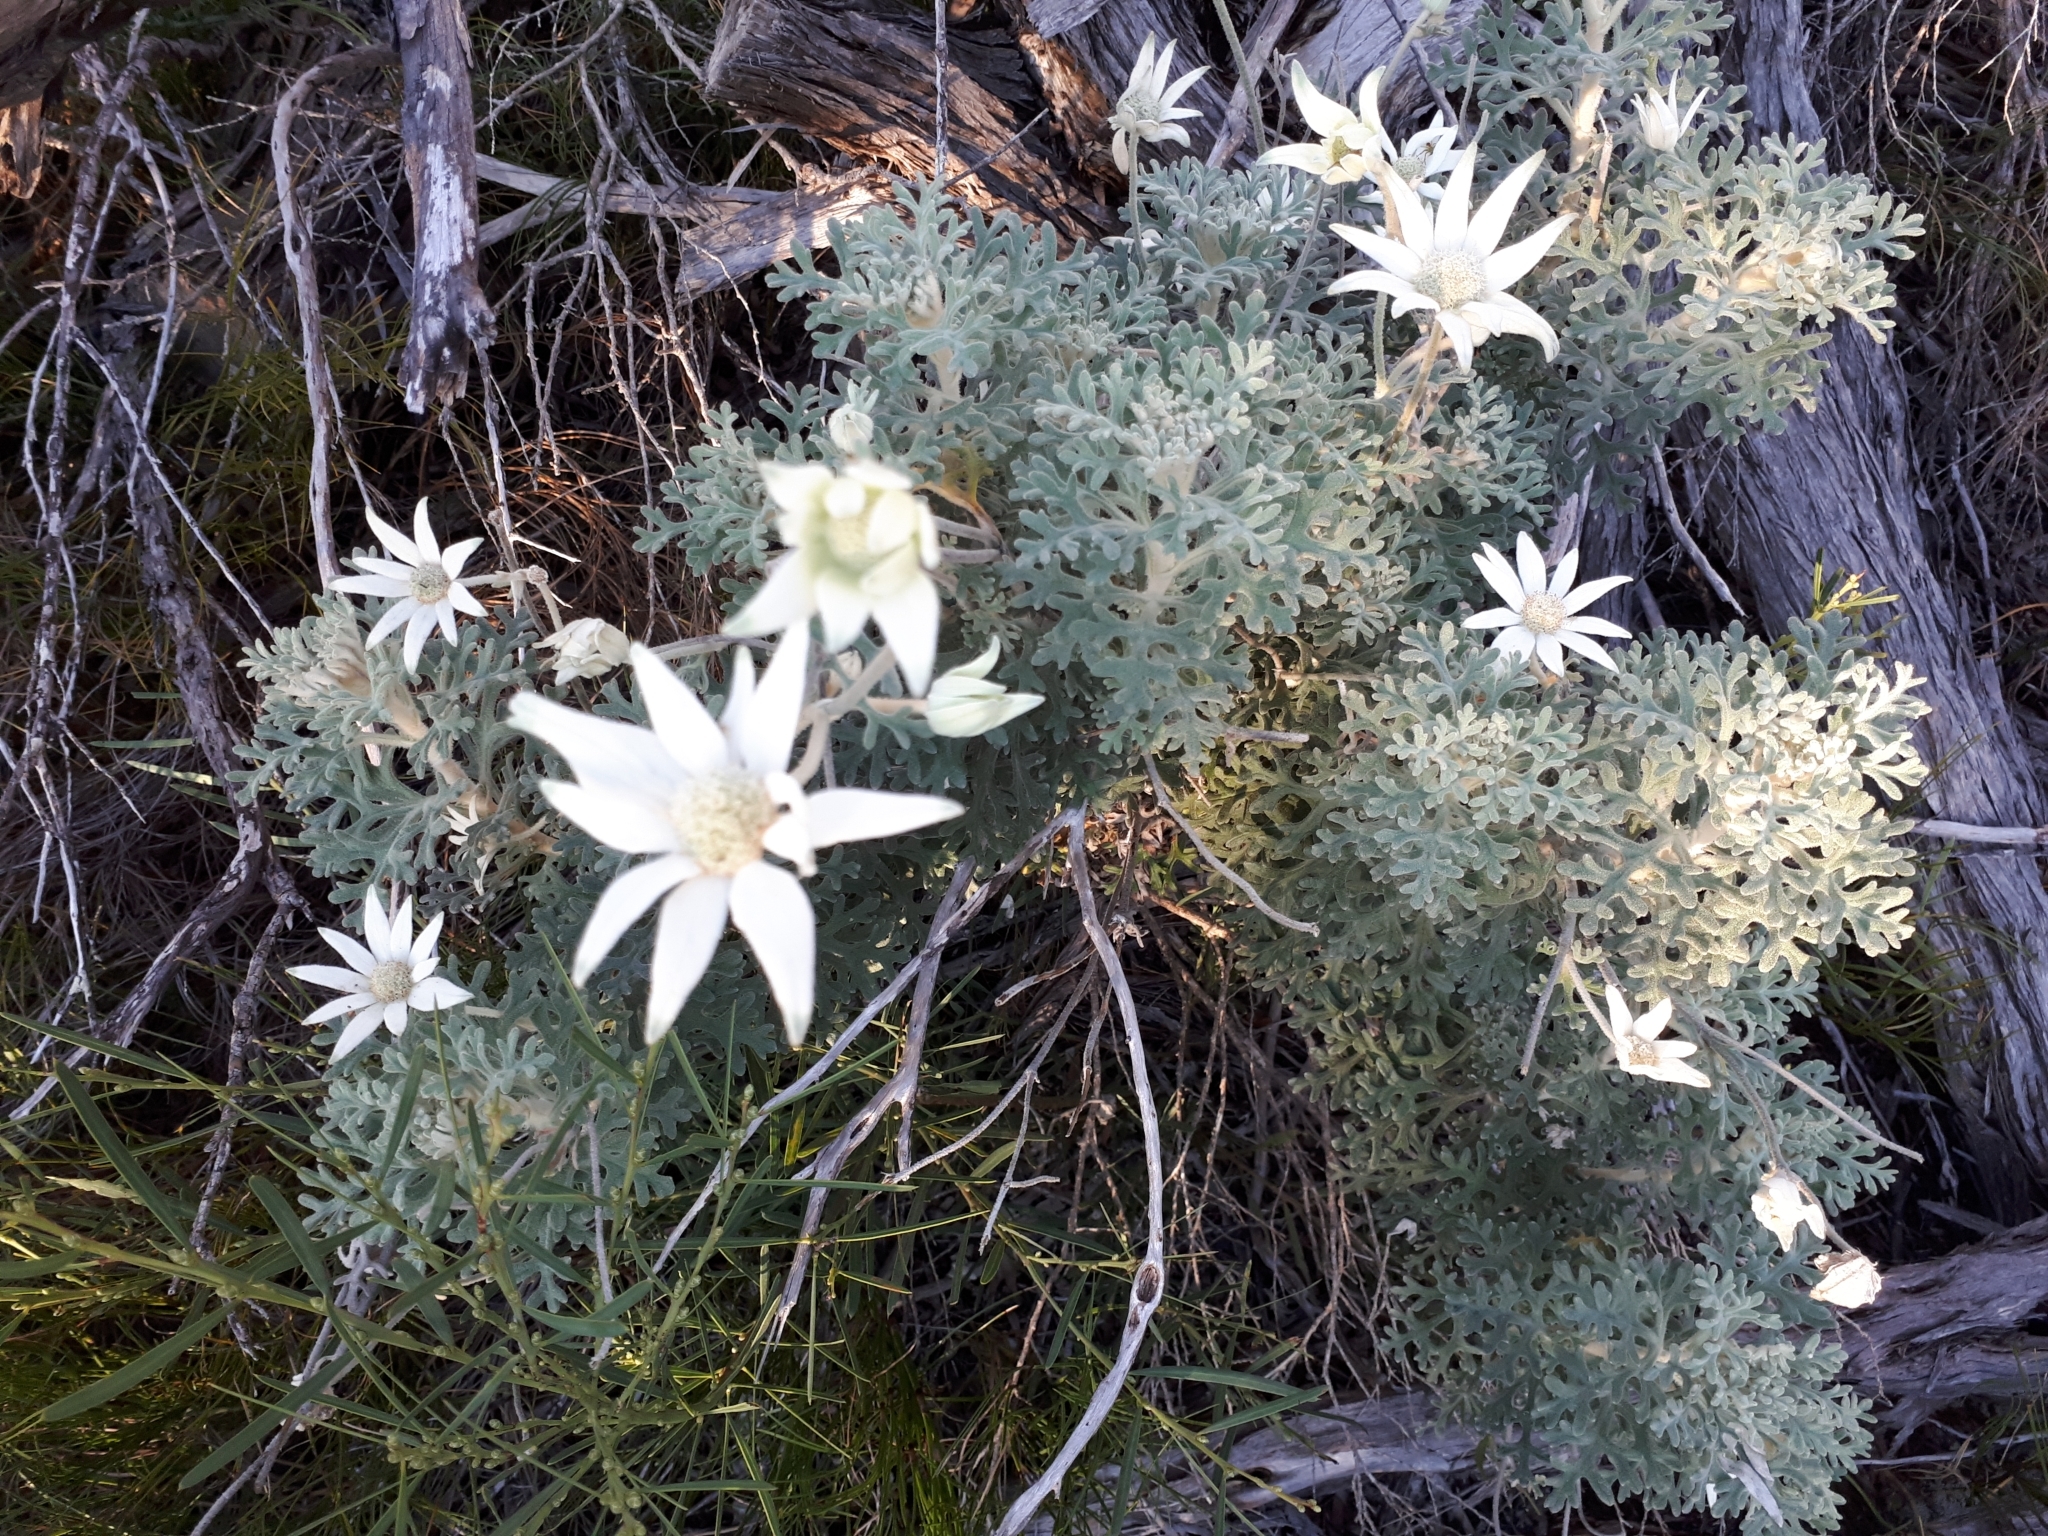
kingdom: Plantae
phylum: Tracheophyta
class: Magnoliopsida
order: Apiales
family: Apiaceae
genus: Actinotus
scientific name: Actinotus helianthi
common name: Flannel-flower
